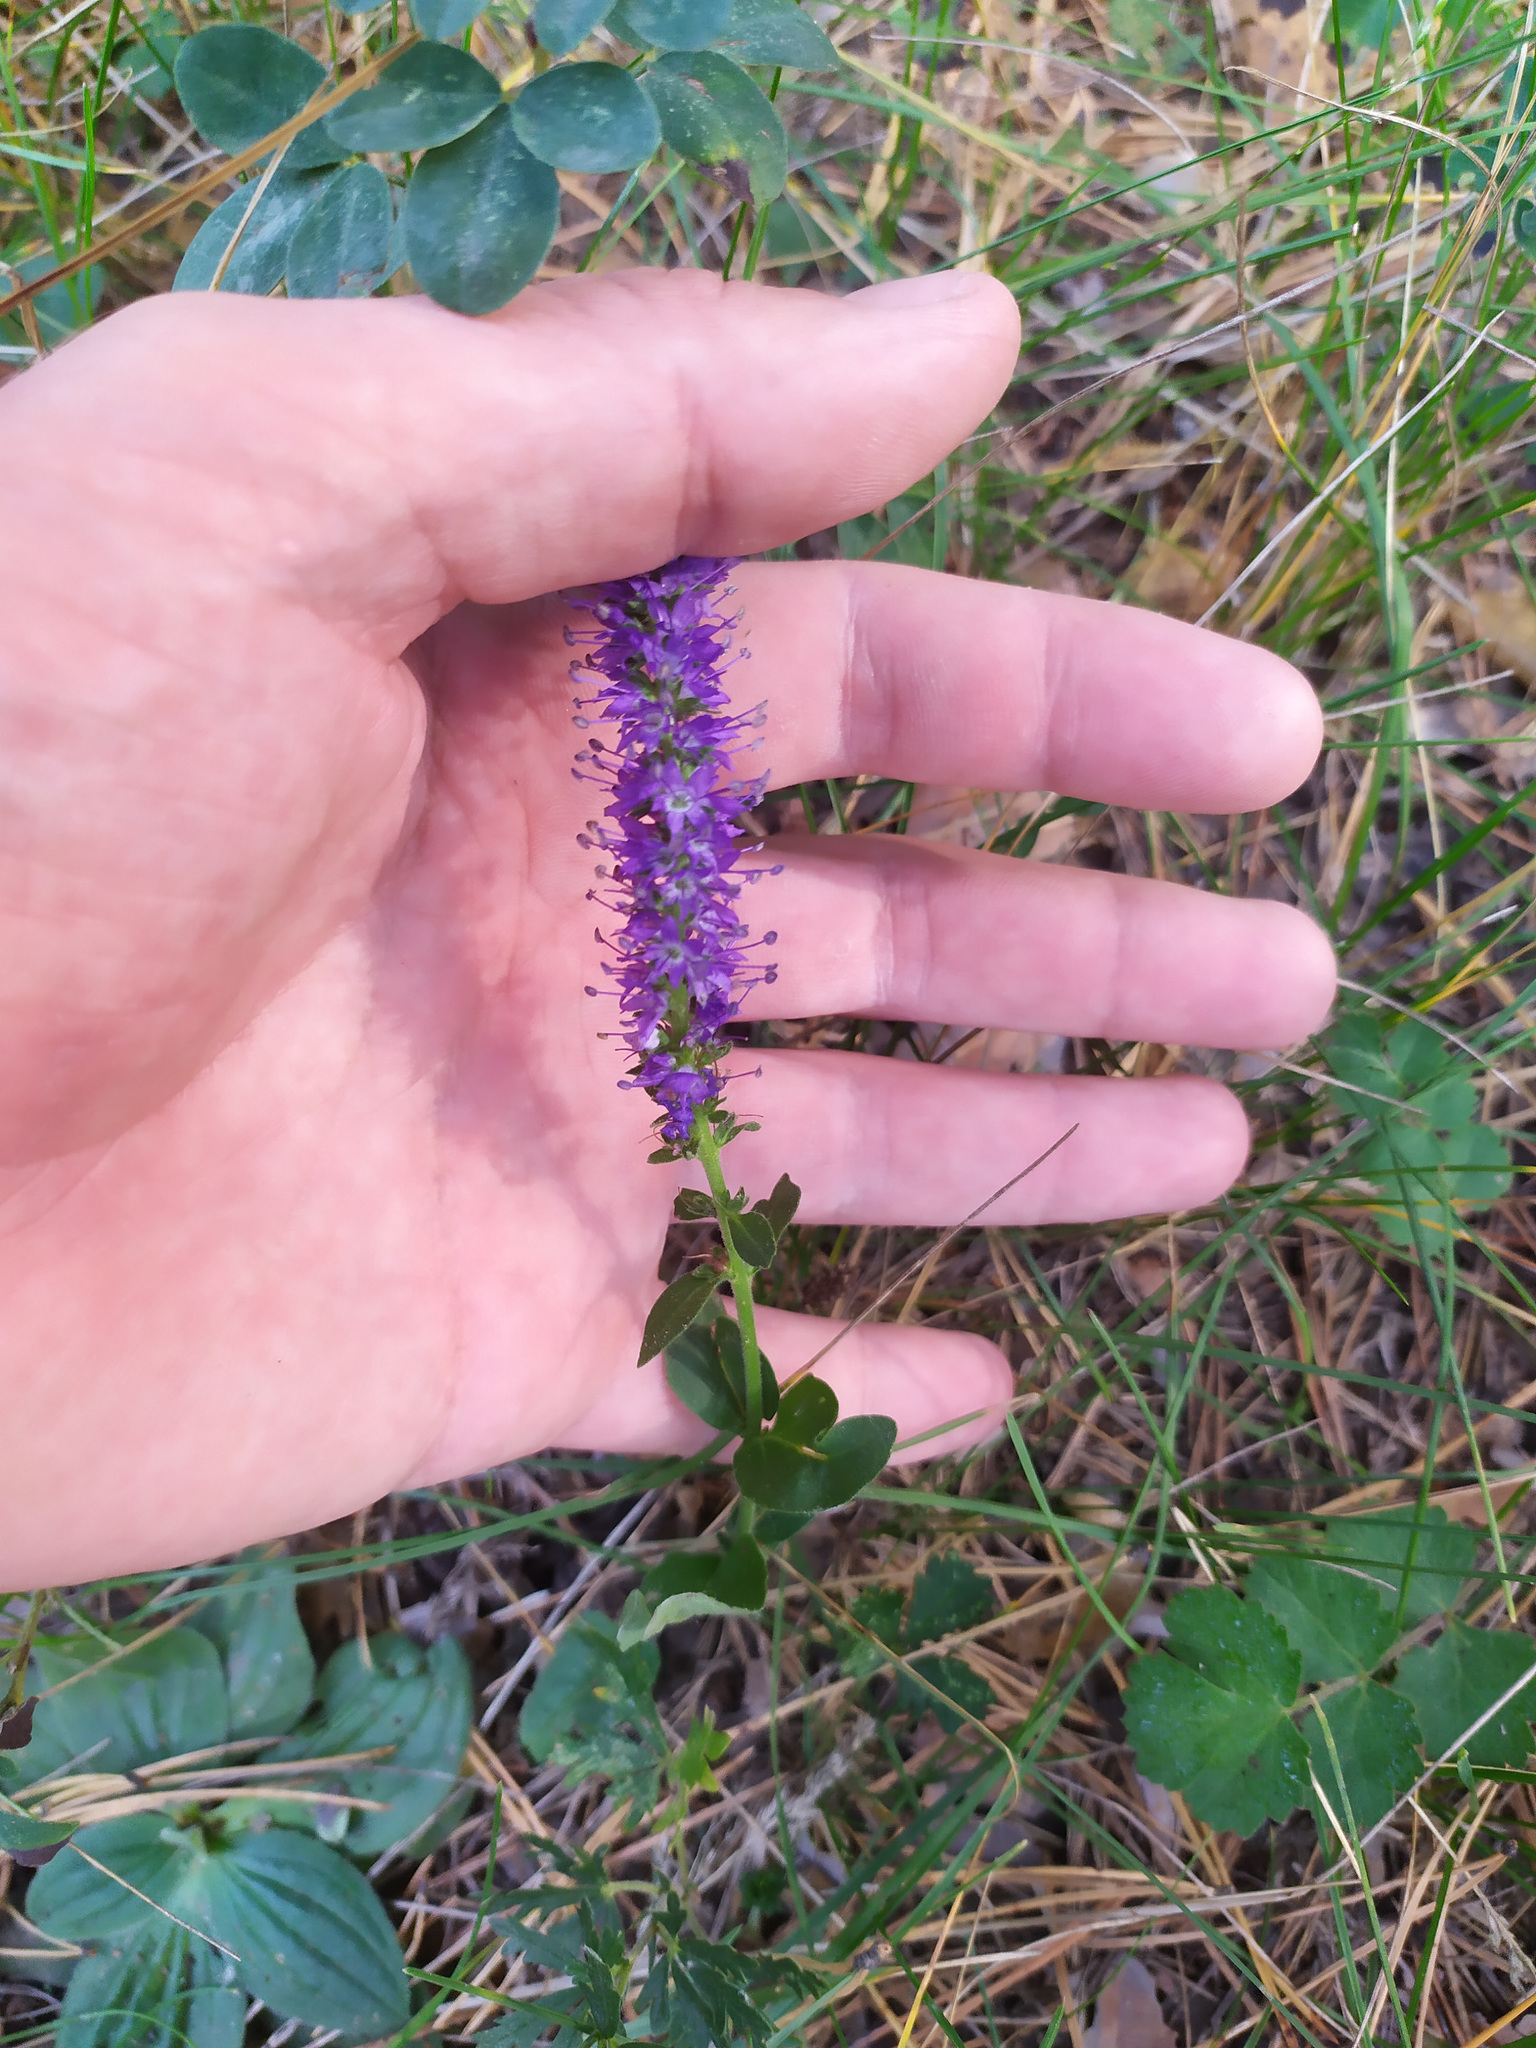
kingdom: Plantae
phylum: Tracheophyta
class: Magnoliopsida
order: Lamiales
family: Plantaginaceae
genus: Veronica
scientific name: Veronica spicata
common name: Spiked speedwell
